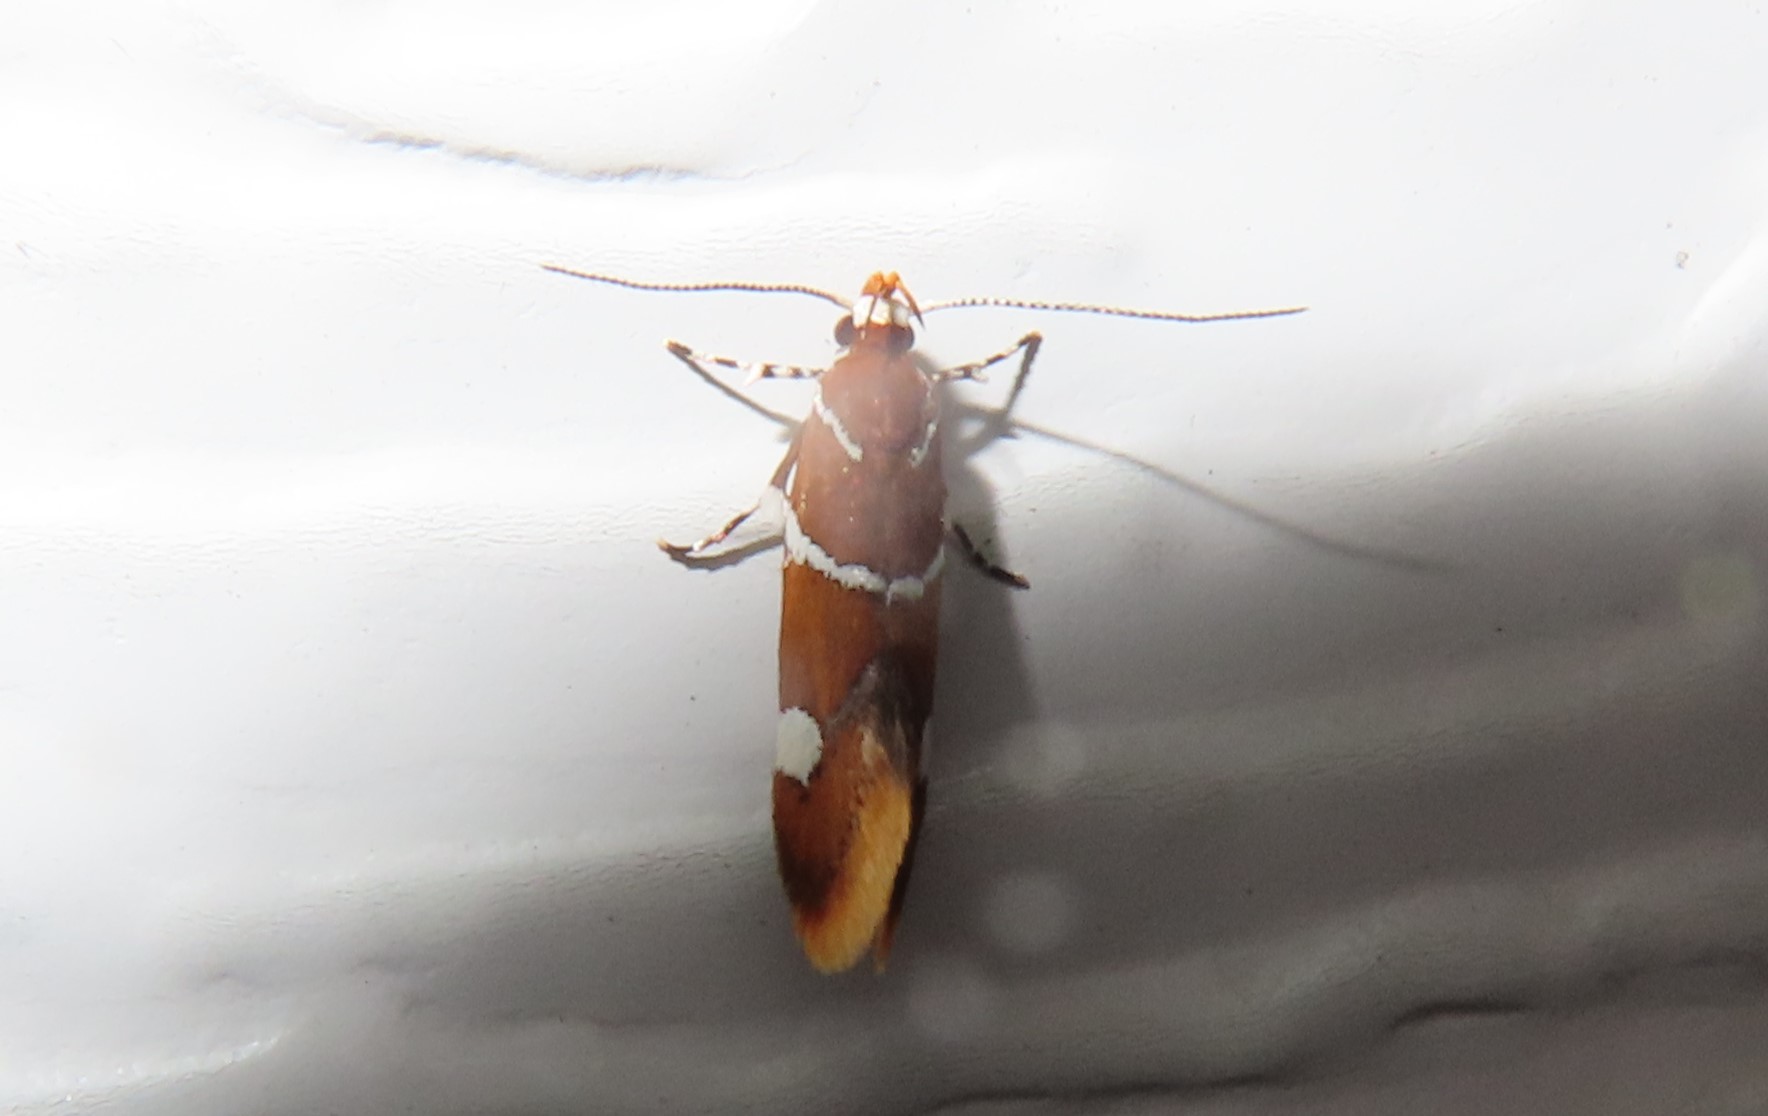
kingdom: Animalia
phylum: Arthropoda
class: Insecta
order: Lepidoptera
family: Oecophoridae
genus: Promalactis
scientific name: Promalactis suzukiella
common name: Moth
